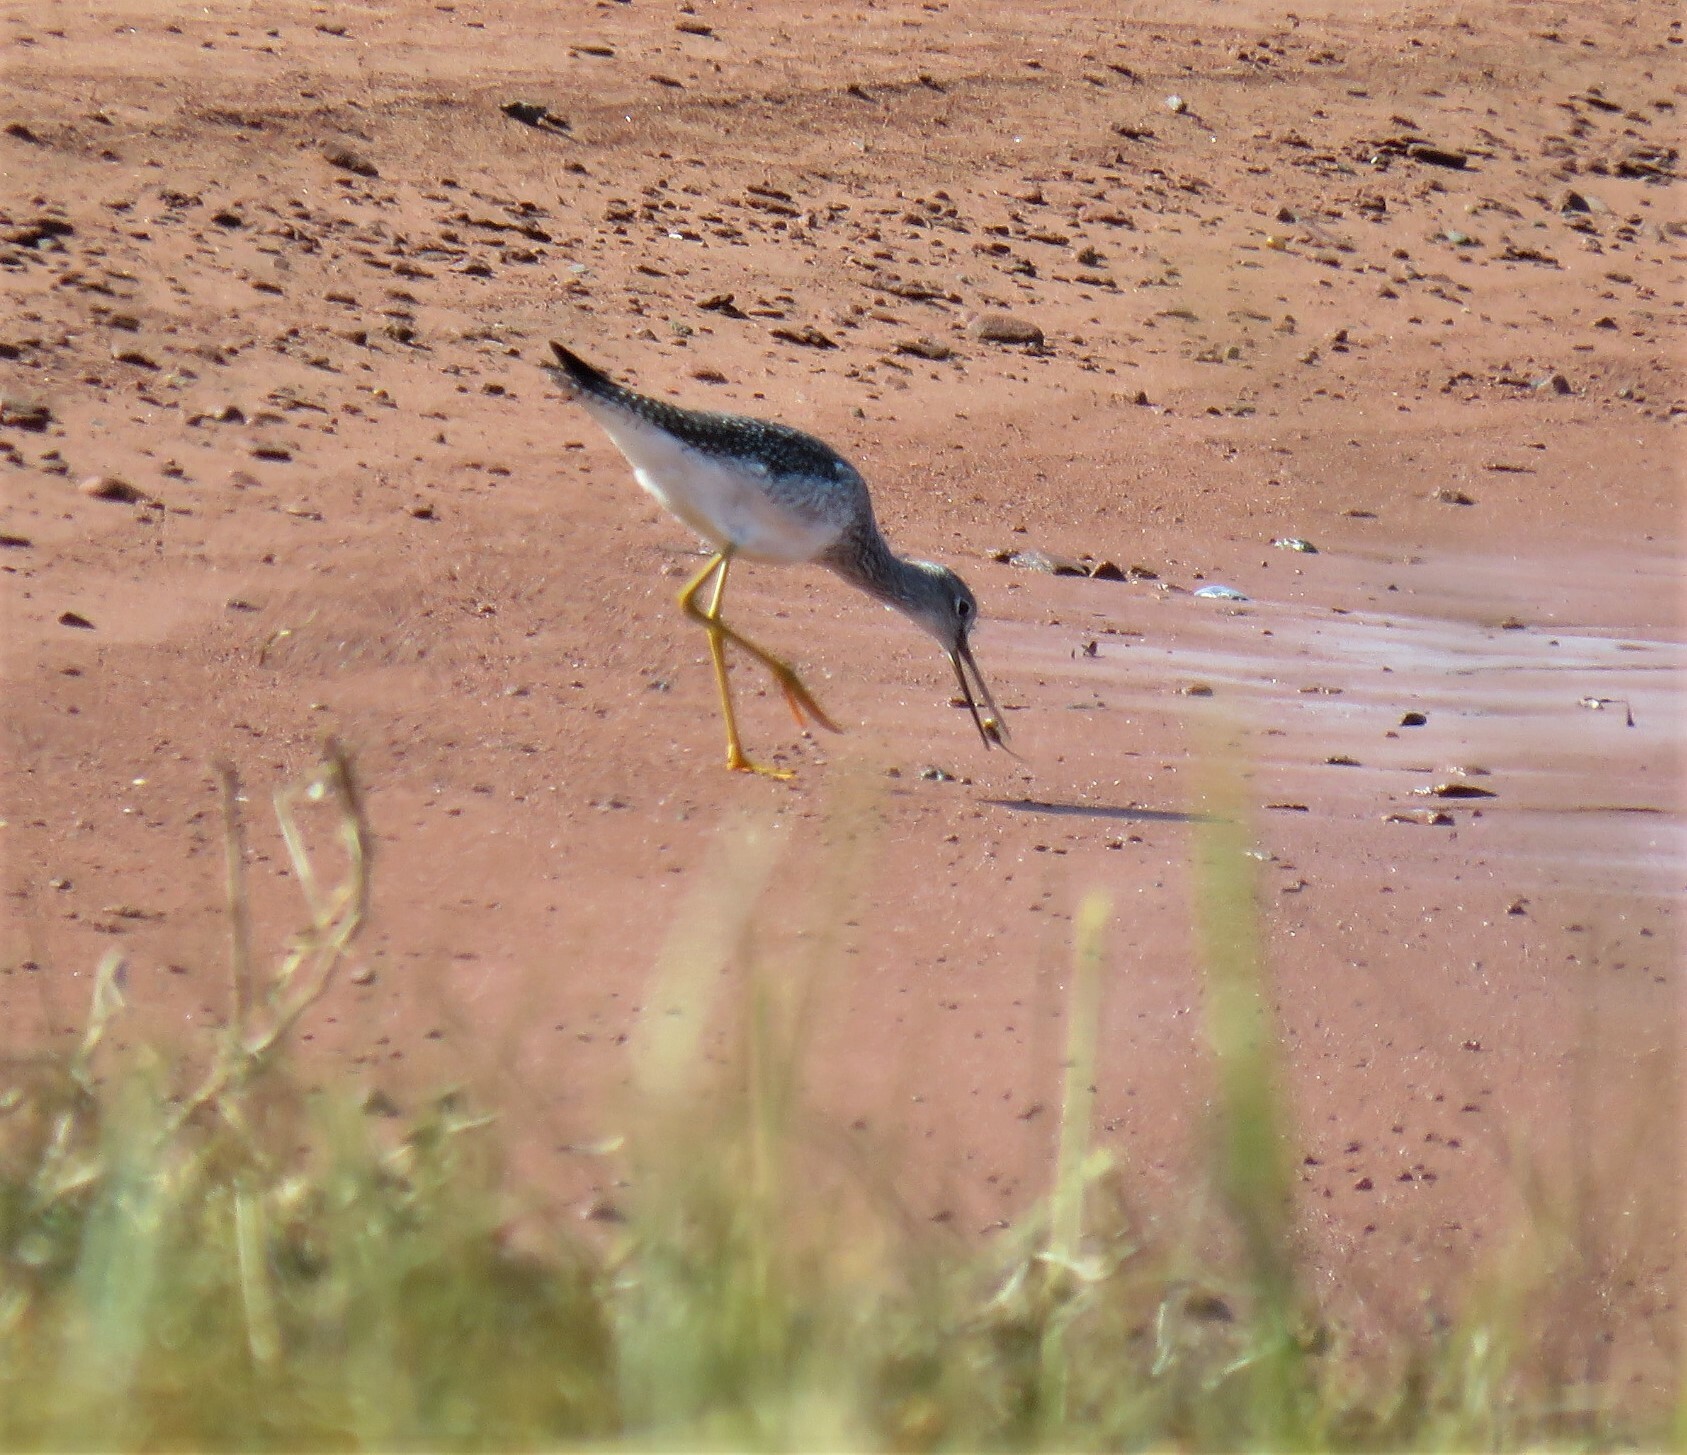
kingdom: Animalia
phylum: Chordata
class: Aves
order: Charadriiformes
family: Scolopacidae
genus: Tringa
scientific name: Tringa melanoleuca
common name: Greater yellowlegs
